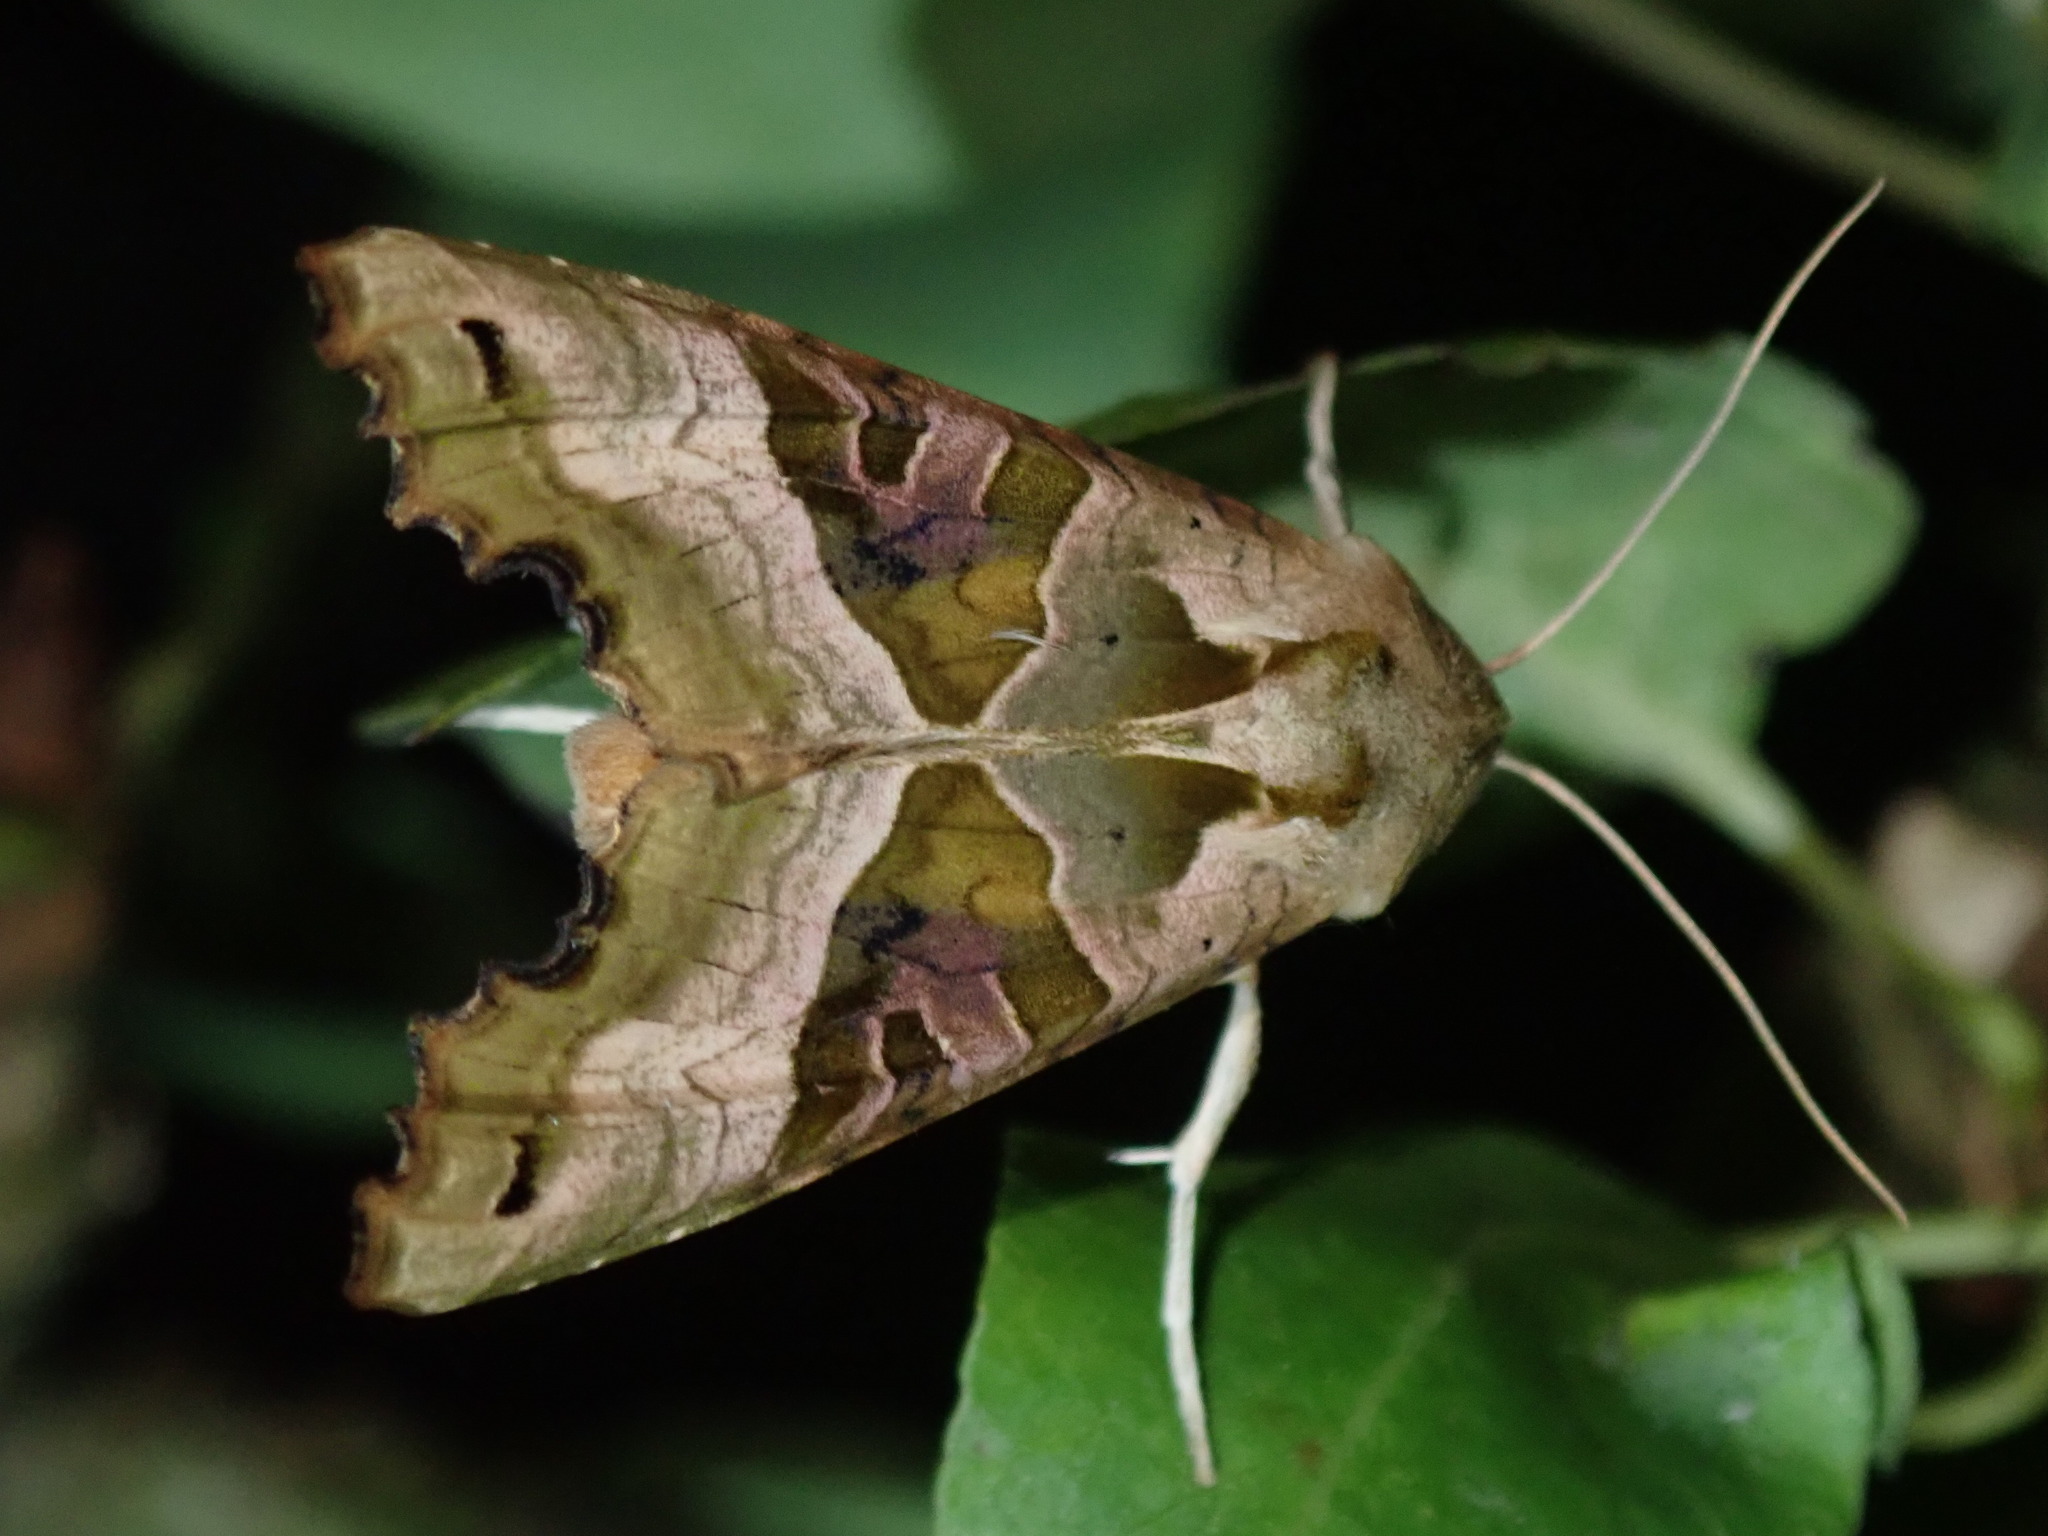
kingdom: Animalia
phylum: Arthropoda
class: Insecta
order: Lepidoptera
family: Noctuidae
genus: Phlogophora
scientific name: Phlogophora meticulosa
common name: Angle shades
